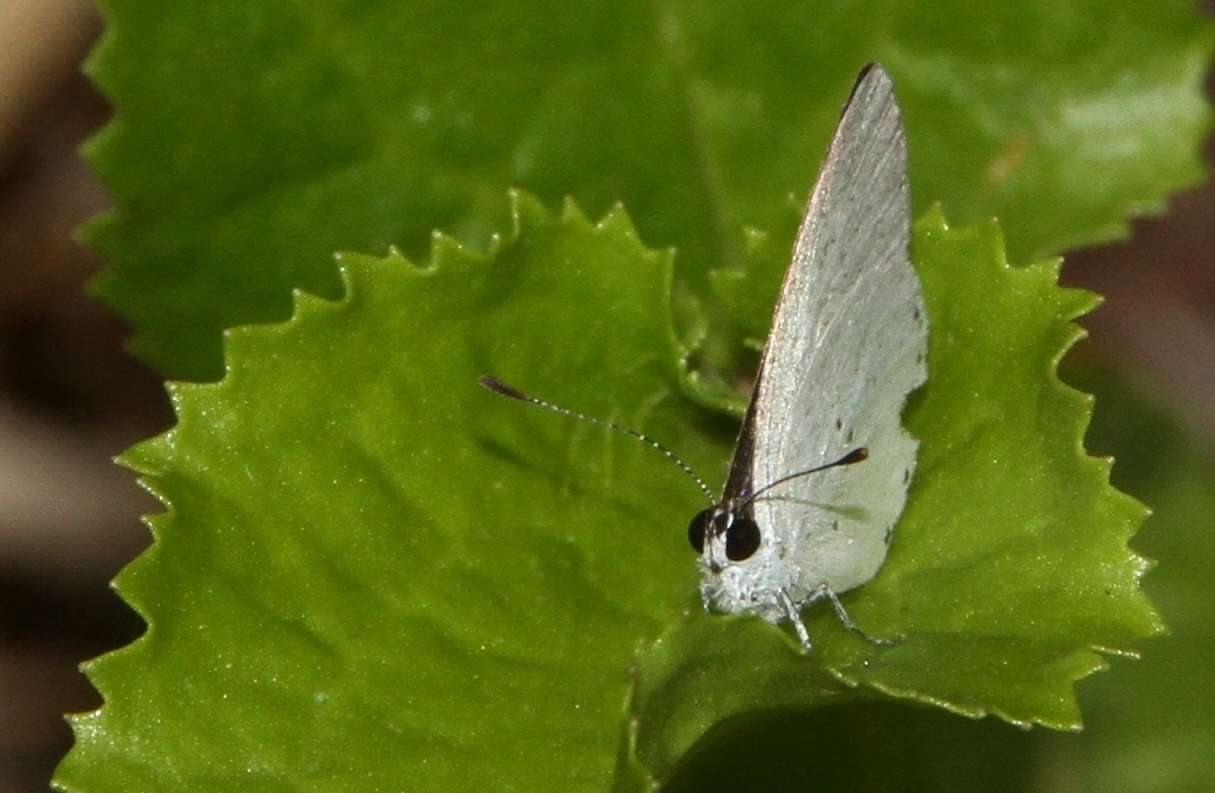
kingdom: Animalia
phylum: Arthropoda
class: Insecta
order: Lepidoptera
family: Lycaenidae
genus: Candalides
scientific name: Candalides xanthospilos
